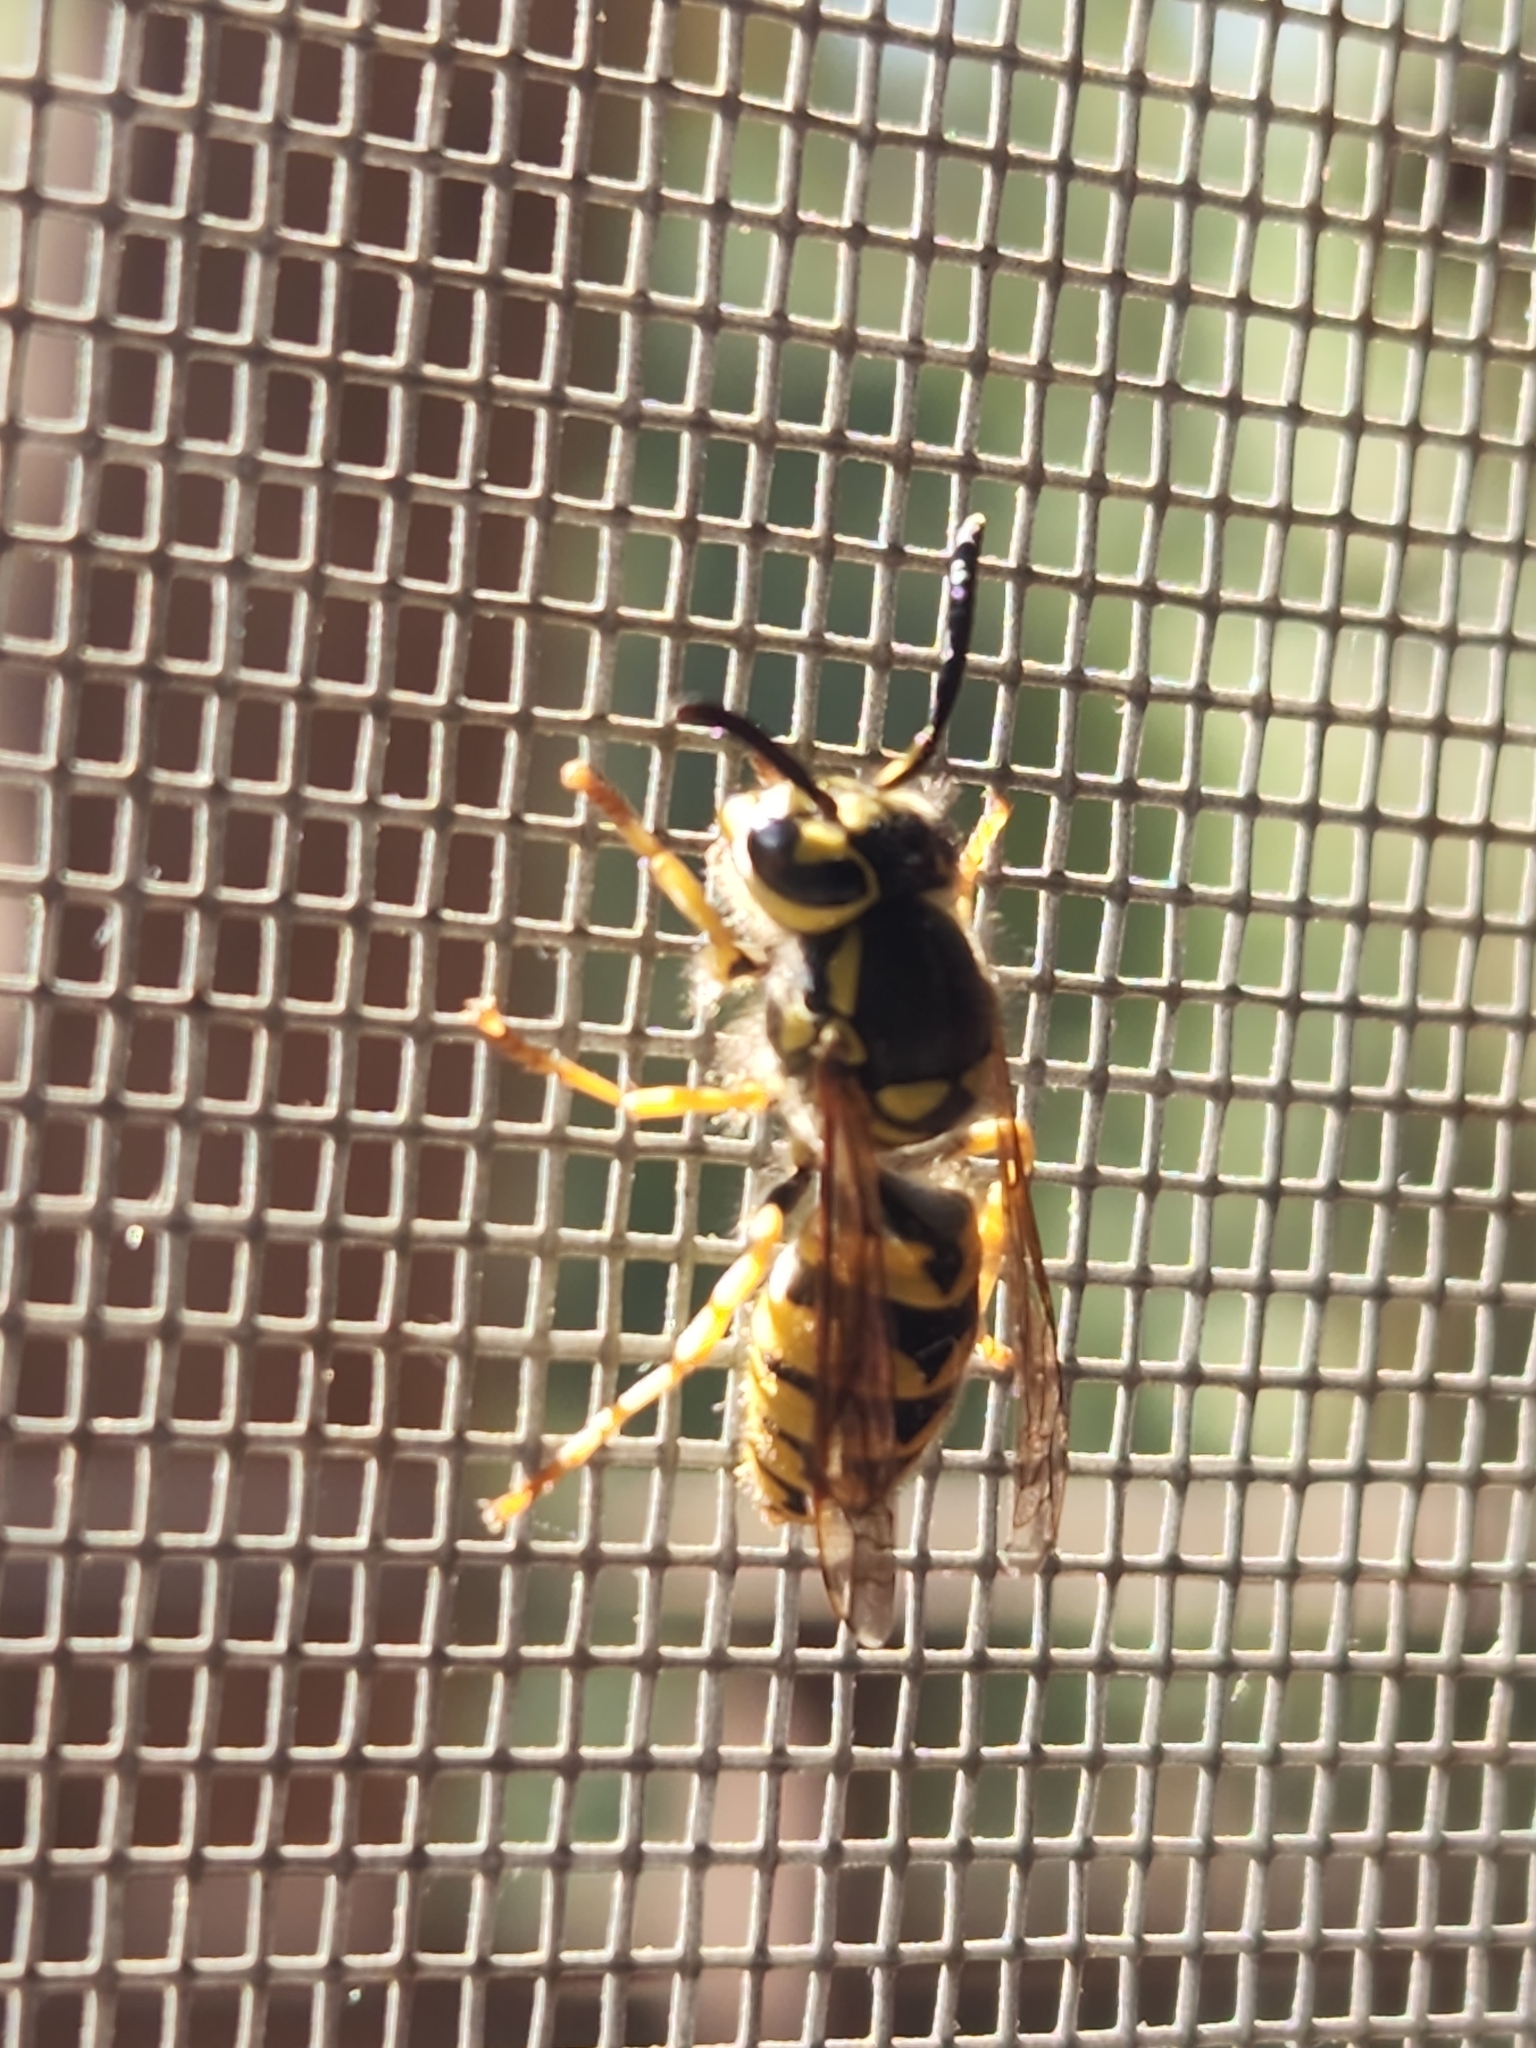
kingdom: Animalia
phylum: Arthropoda
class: Insecta
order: Hymenoptera
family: Vespidae
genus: Vespula
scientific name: Vespula pensylvanica
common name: Western yellowjacket
